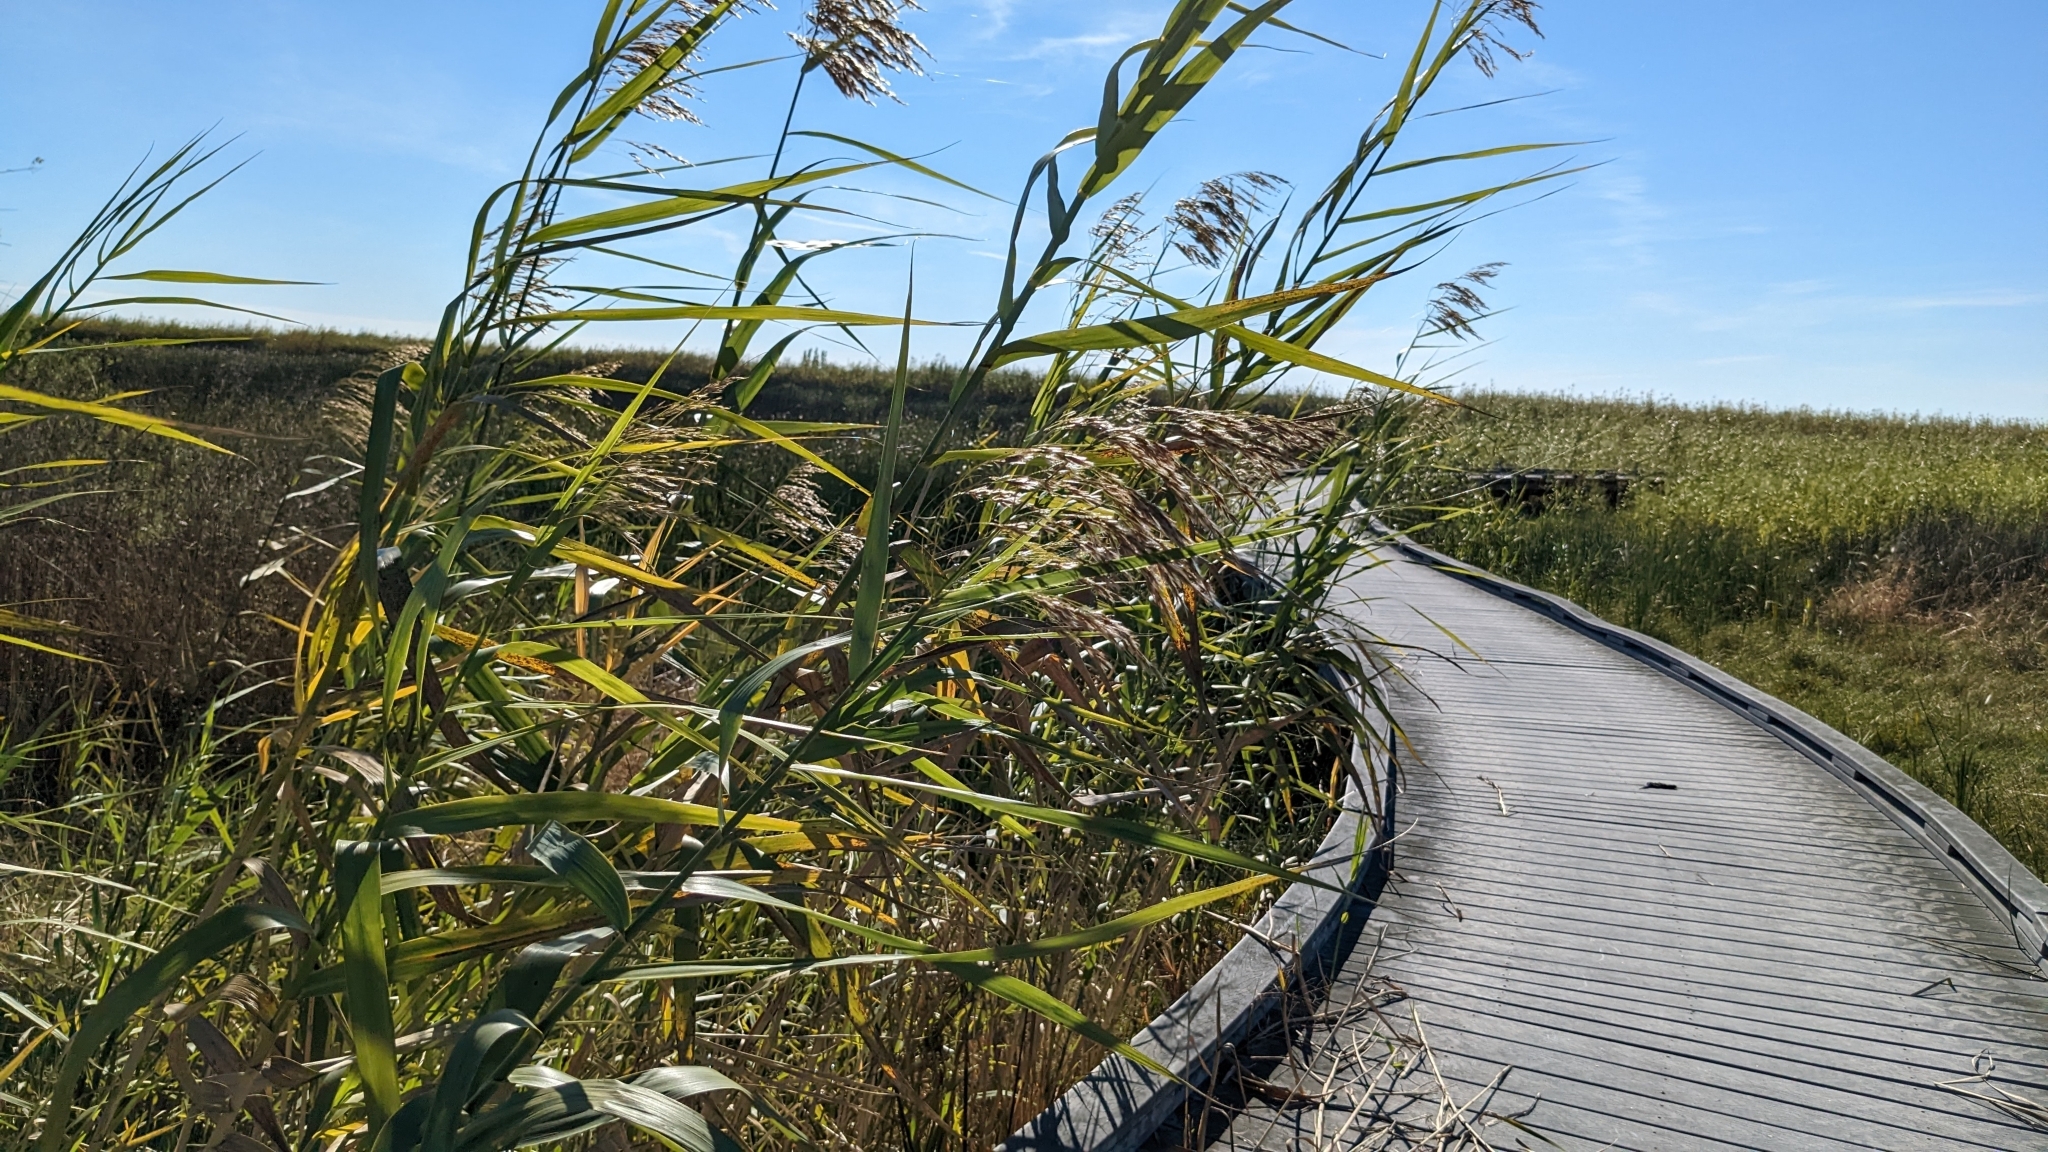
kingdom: Plantae
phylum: Tracheophyta
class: Liliopsida
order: Poales
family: Poaceae
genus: Phragmites
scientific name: Phragmites australis
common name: Common reed
